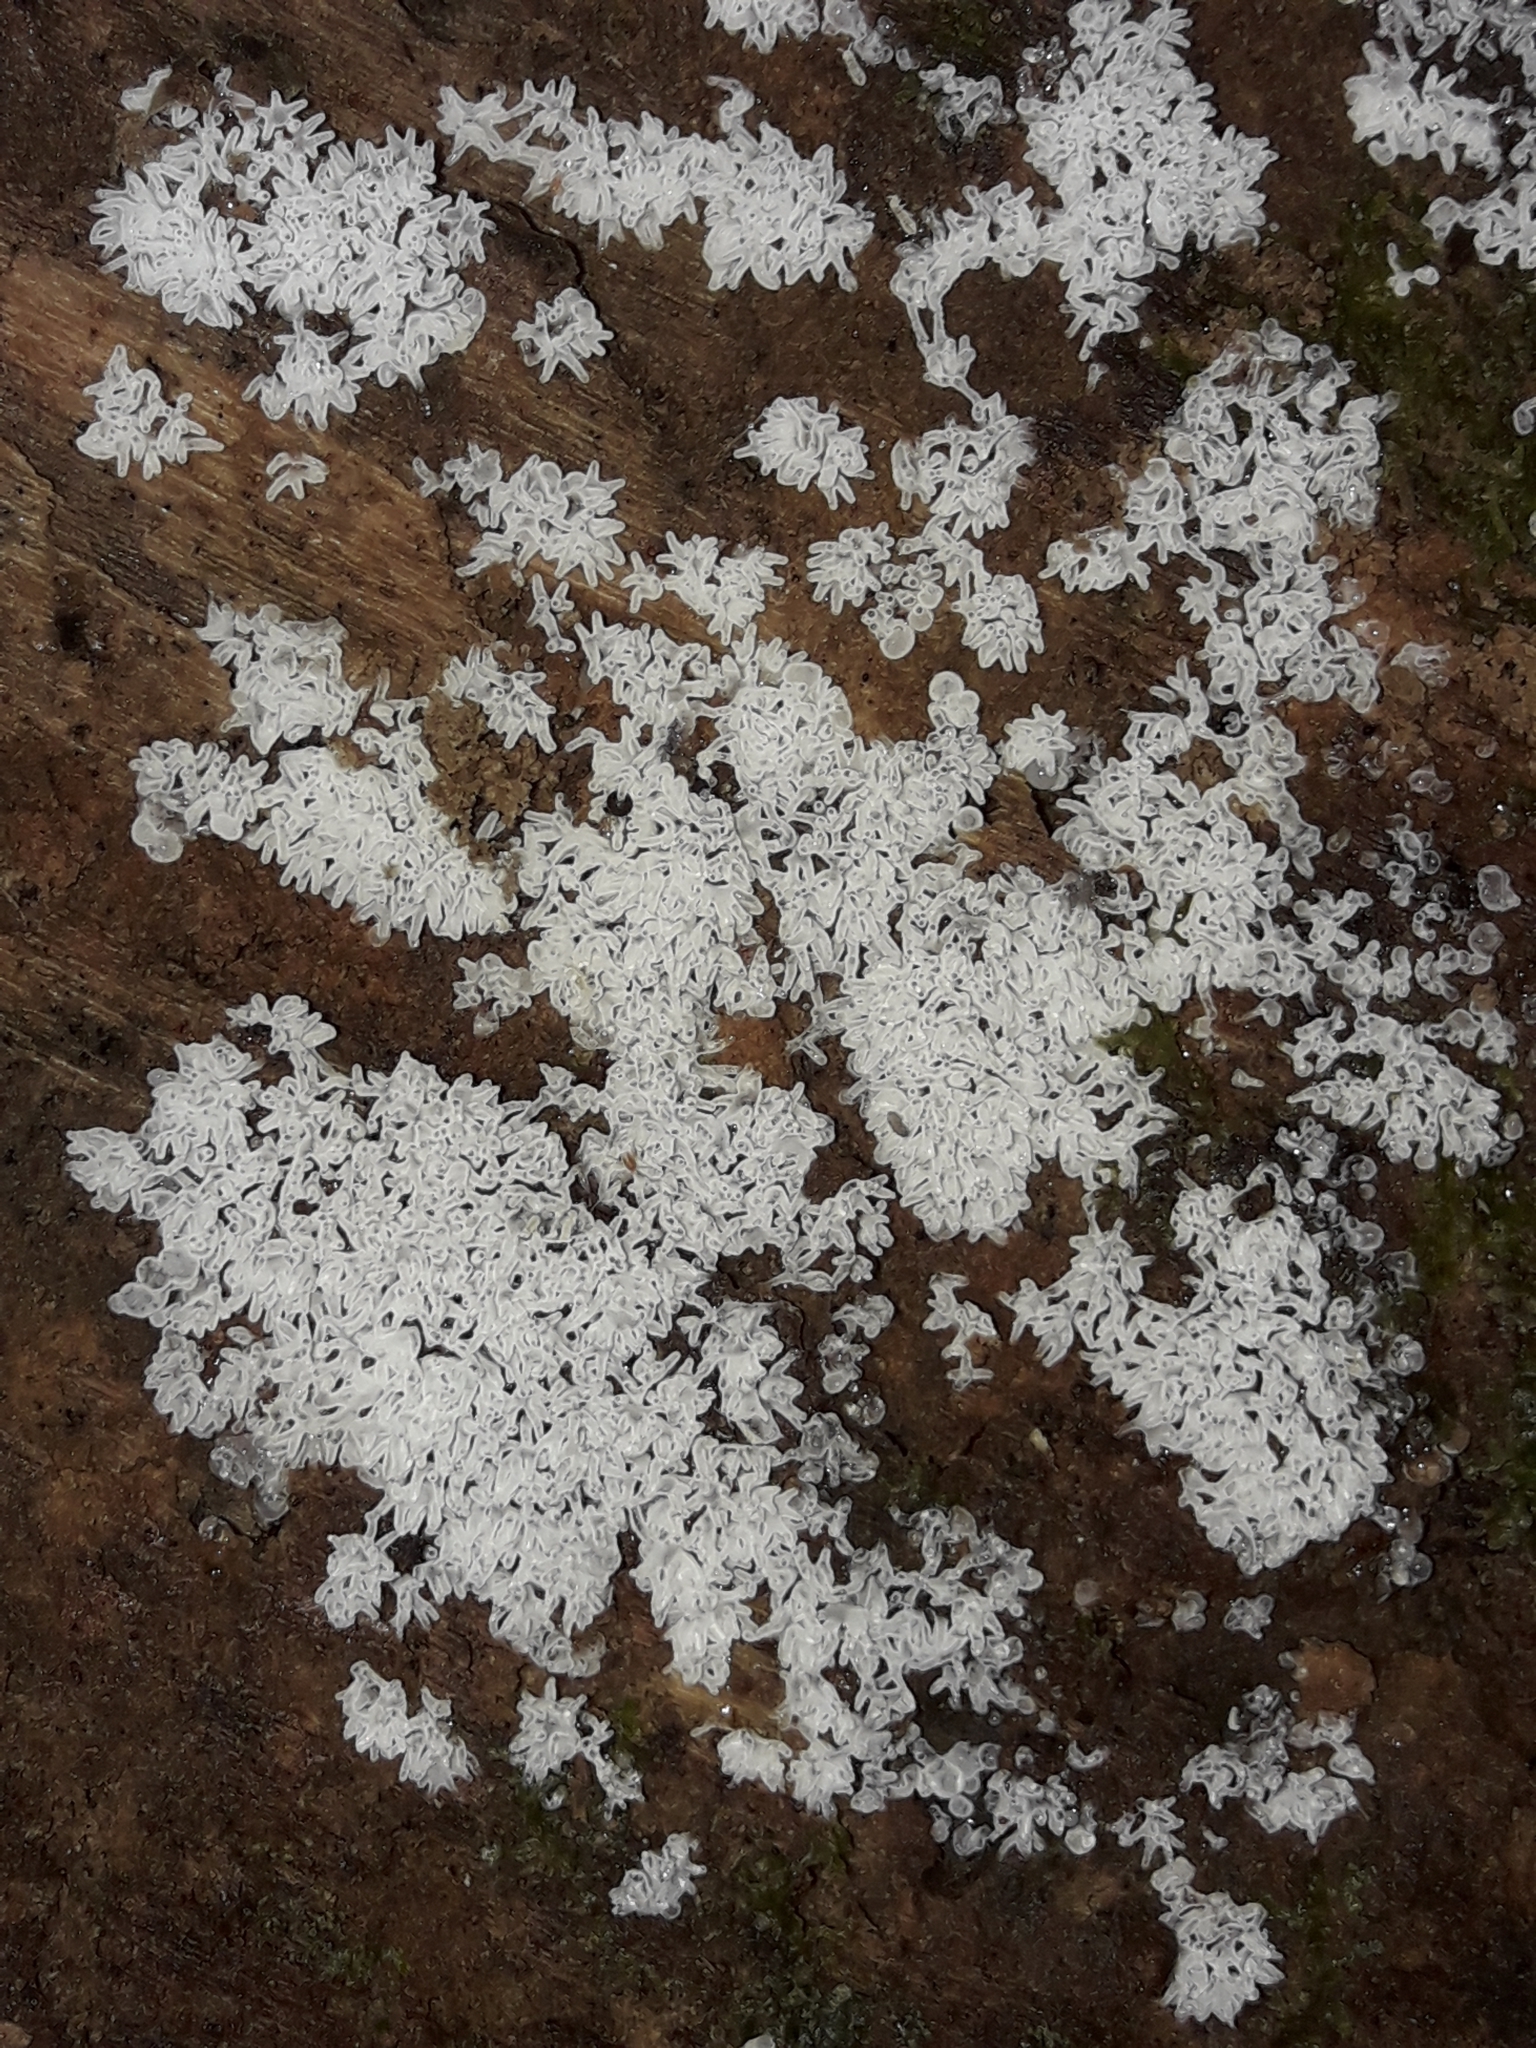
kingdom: Protozoa
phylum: Mycetozoa
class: Protosteliomycetes
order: Ceratiomyxales
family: Ceratiomyxaceae
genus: Ceratiomyxa
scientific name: Ceratiomyxa fruticulosa
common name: Honeycomb coral slime mold
